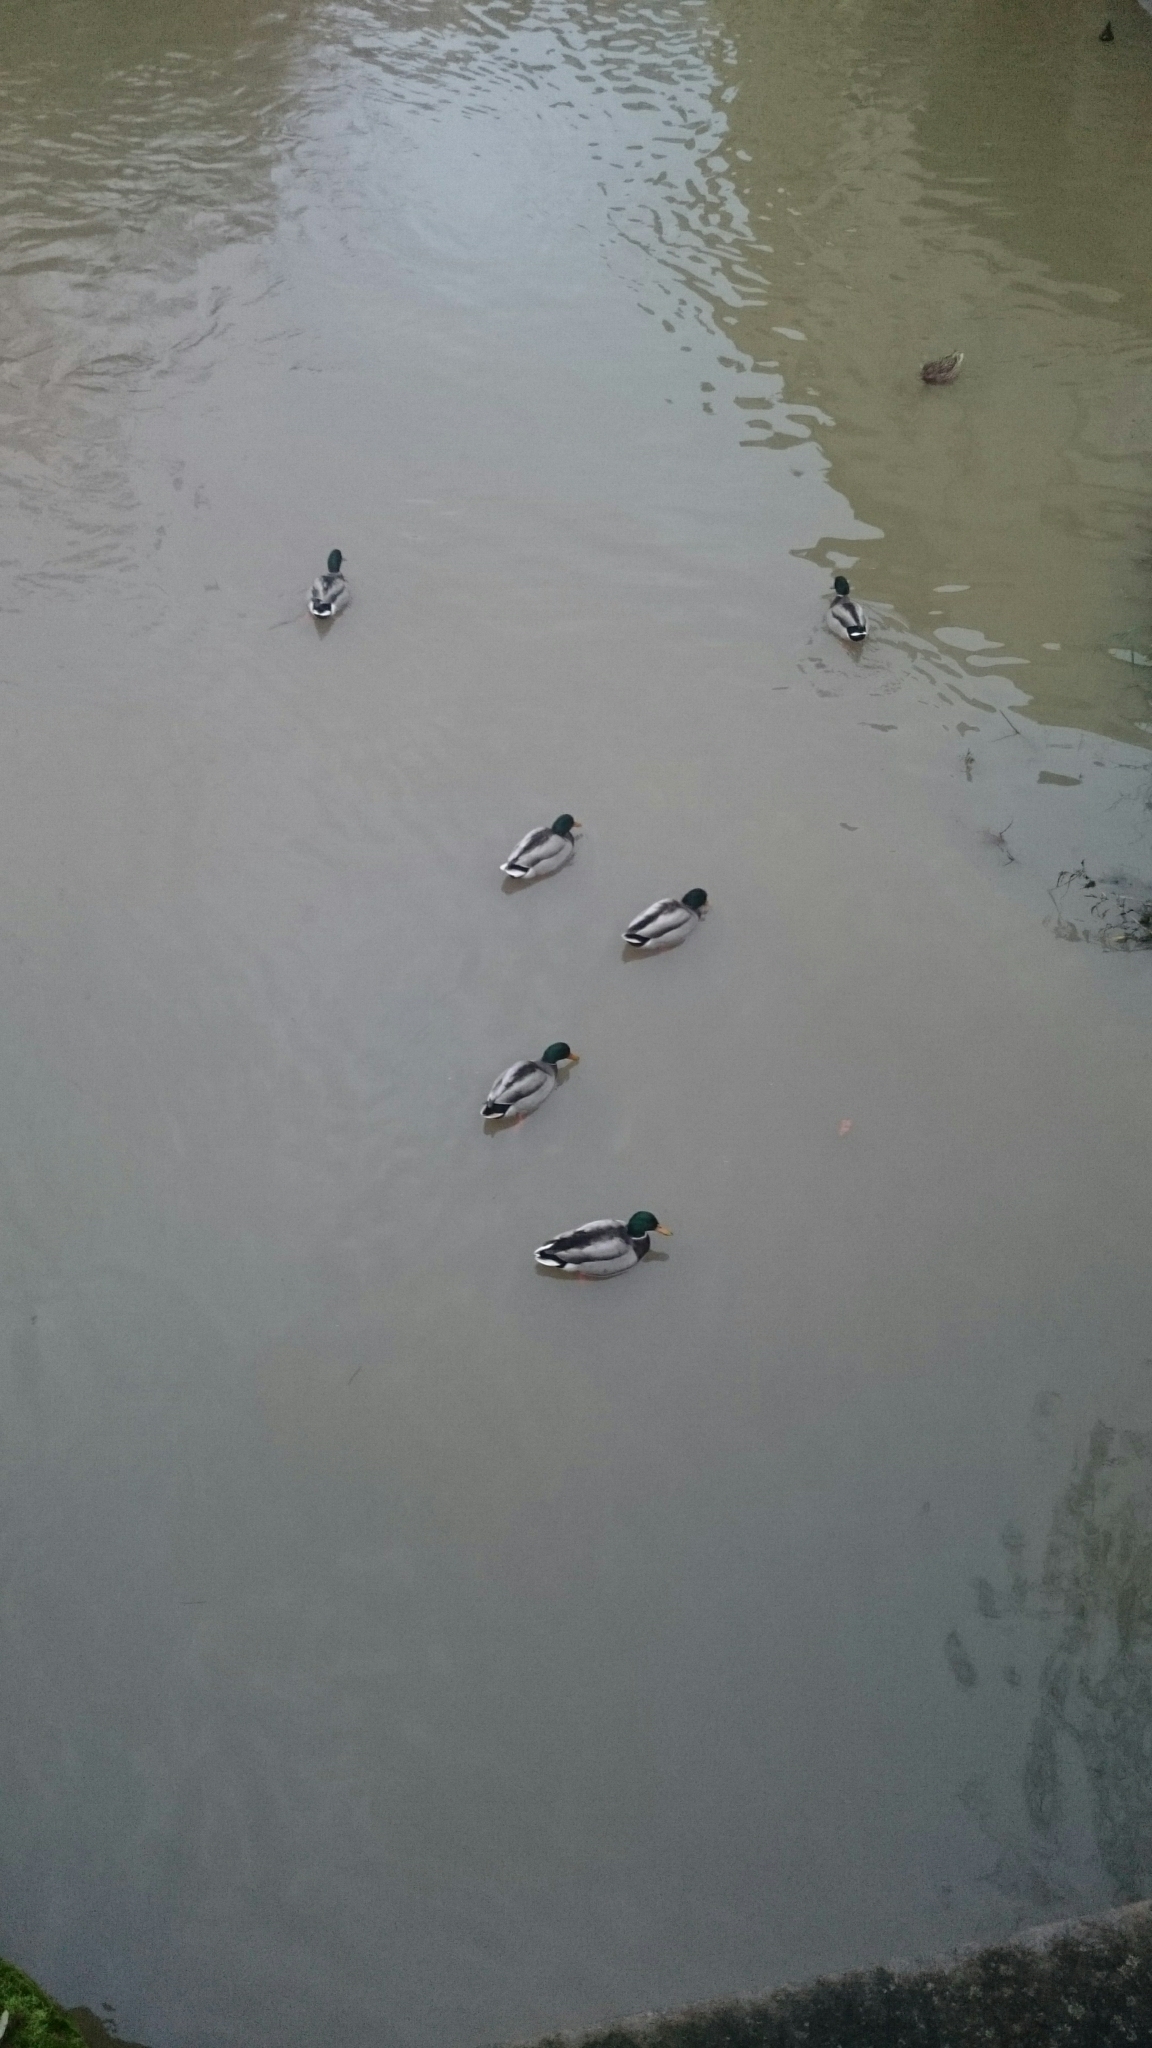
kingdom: Animalia
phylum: Chordata
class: Aves
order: Anseriformes
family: Anatidae
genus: Anas
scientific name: Anas platyrhynchos
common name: Mallard
